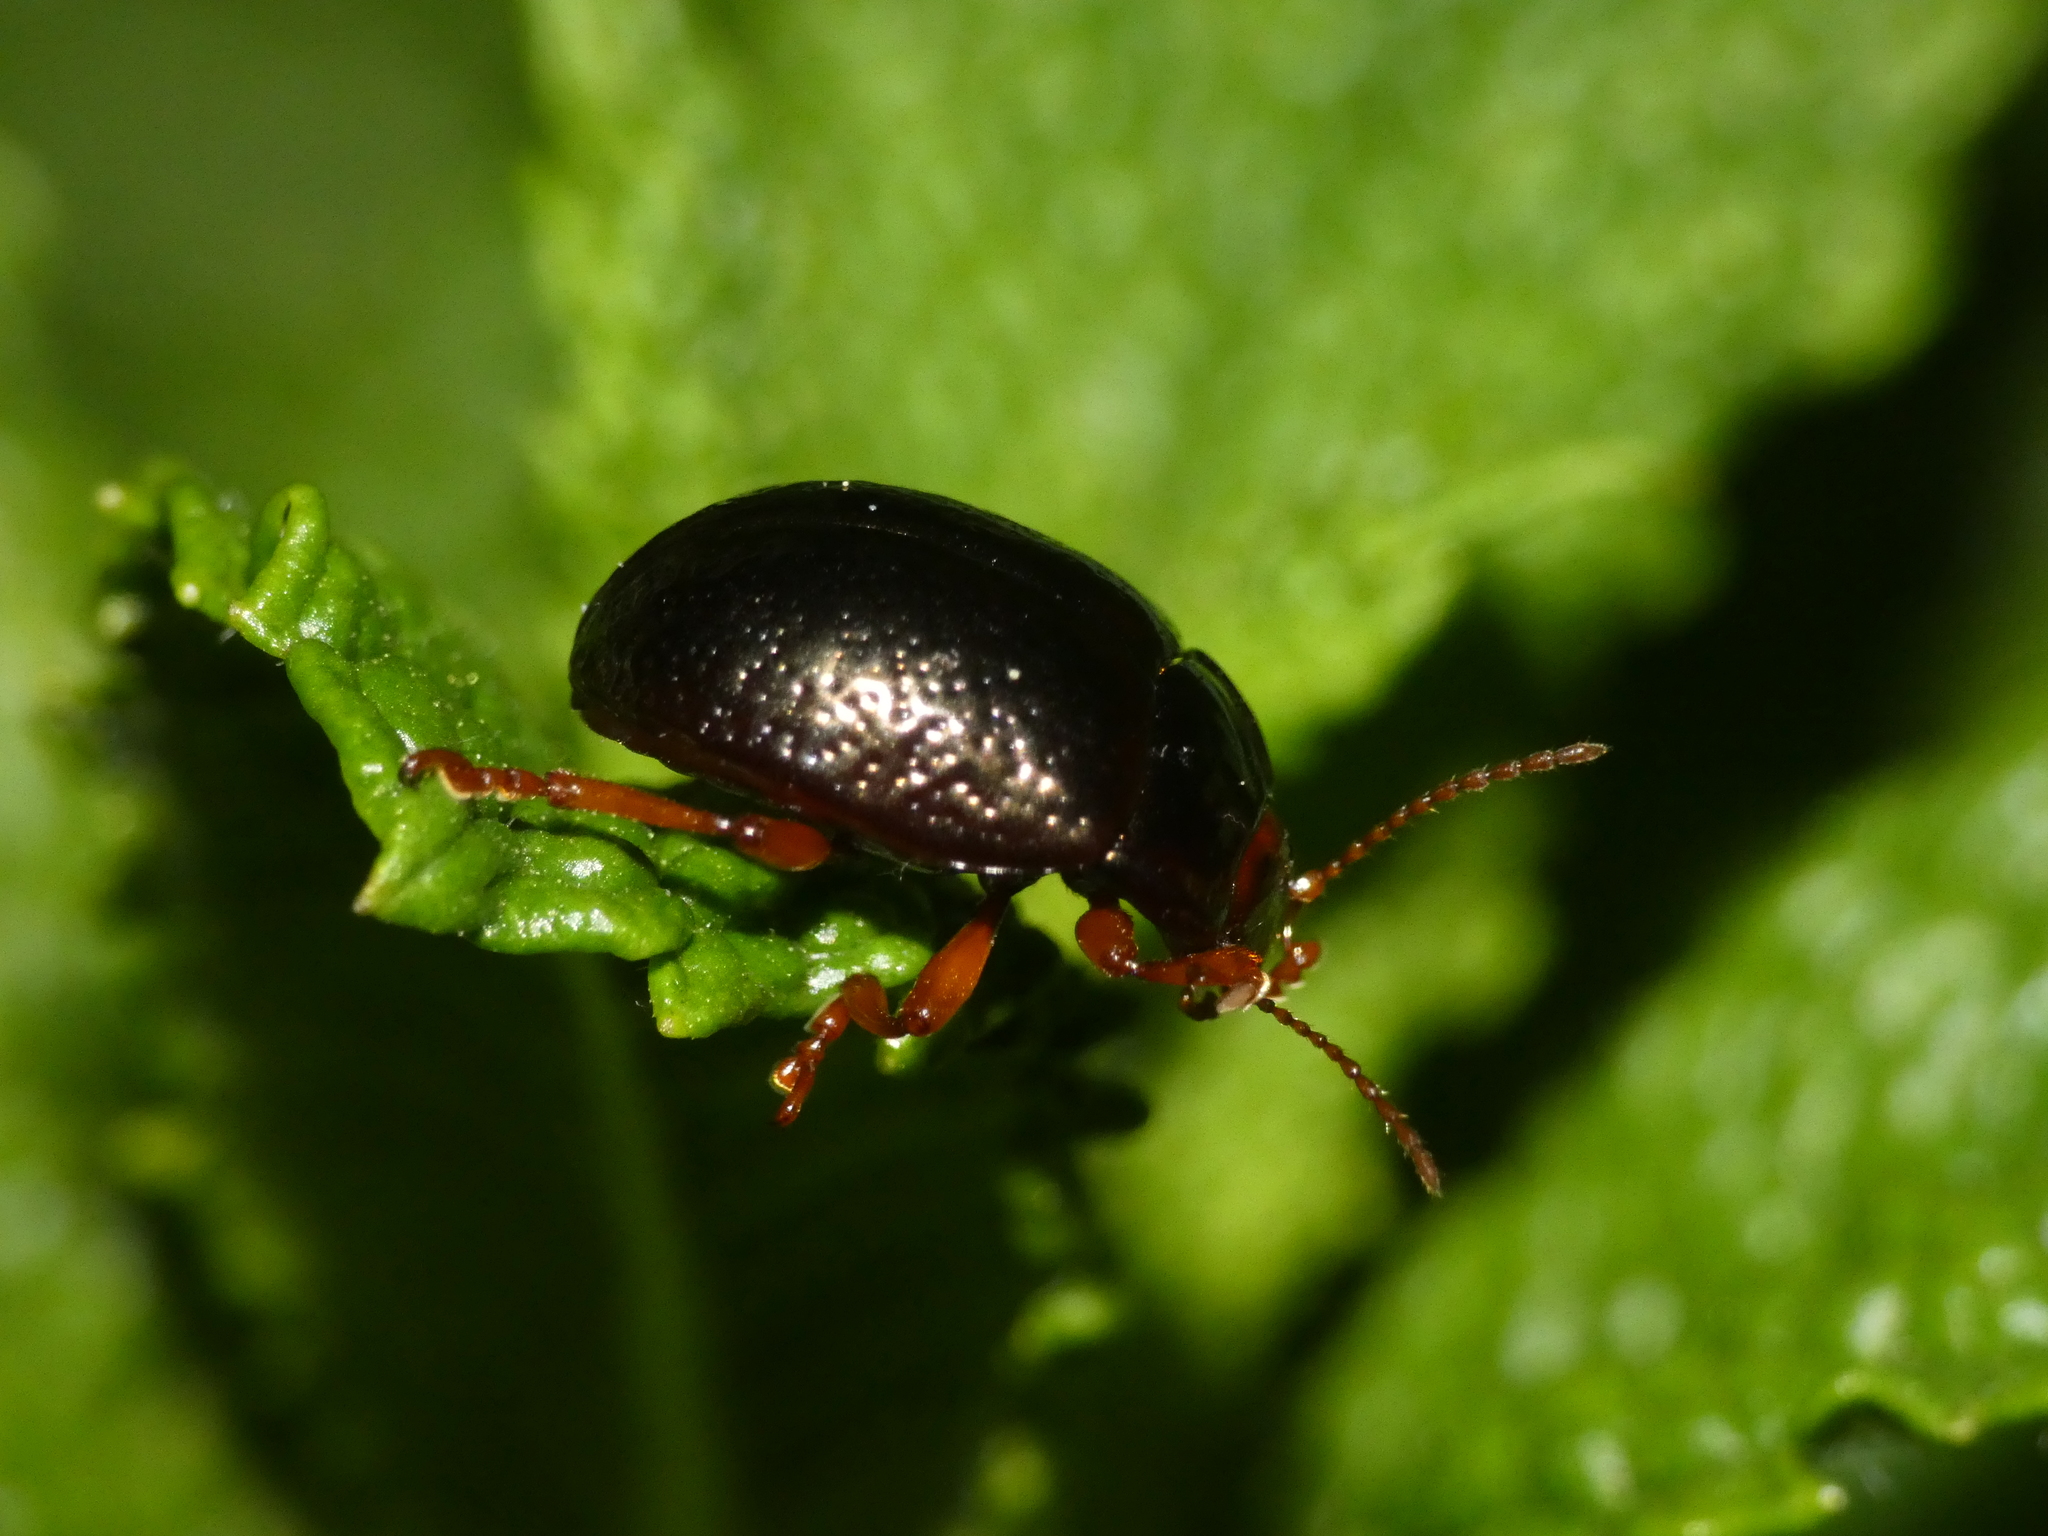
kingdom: Animalia
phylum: Arthropoda
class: Insecta
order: Coleoptera
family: Chrysomelidae
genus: Chrysolina
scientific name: Chrysolina bankii
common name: Leaf beetle
